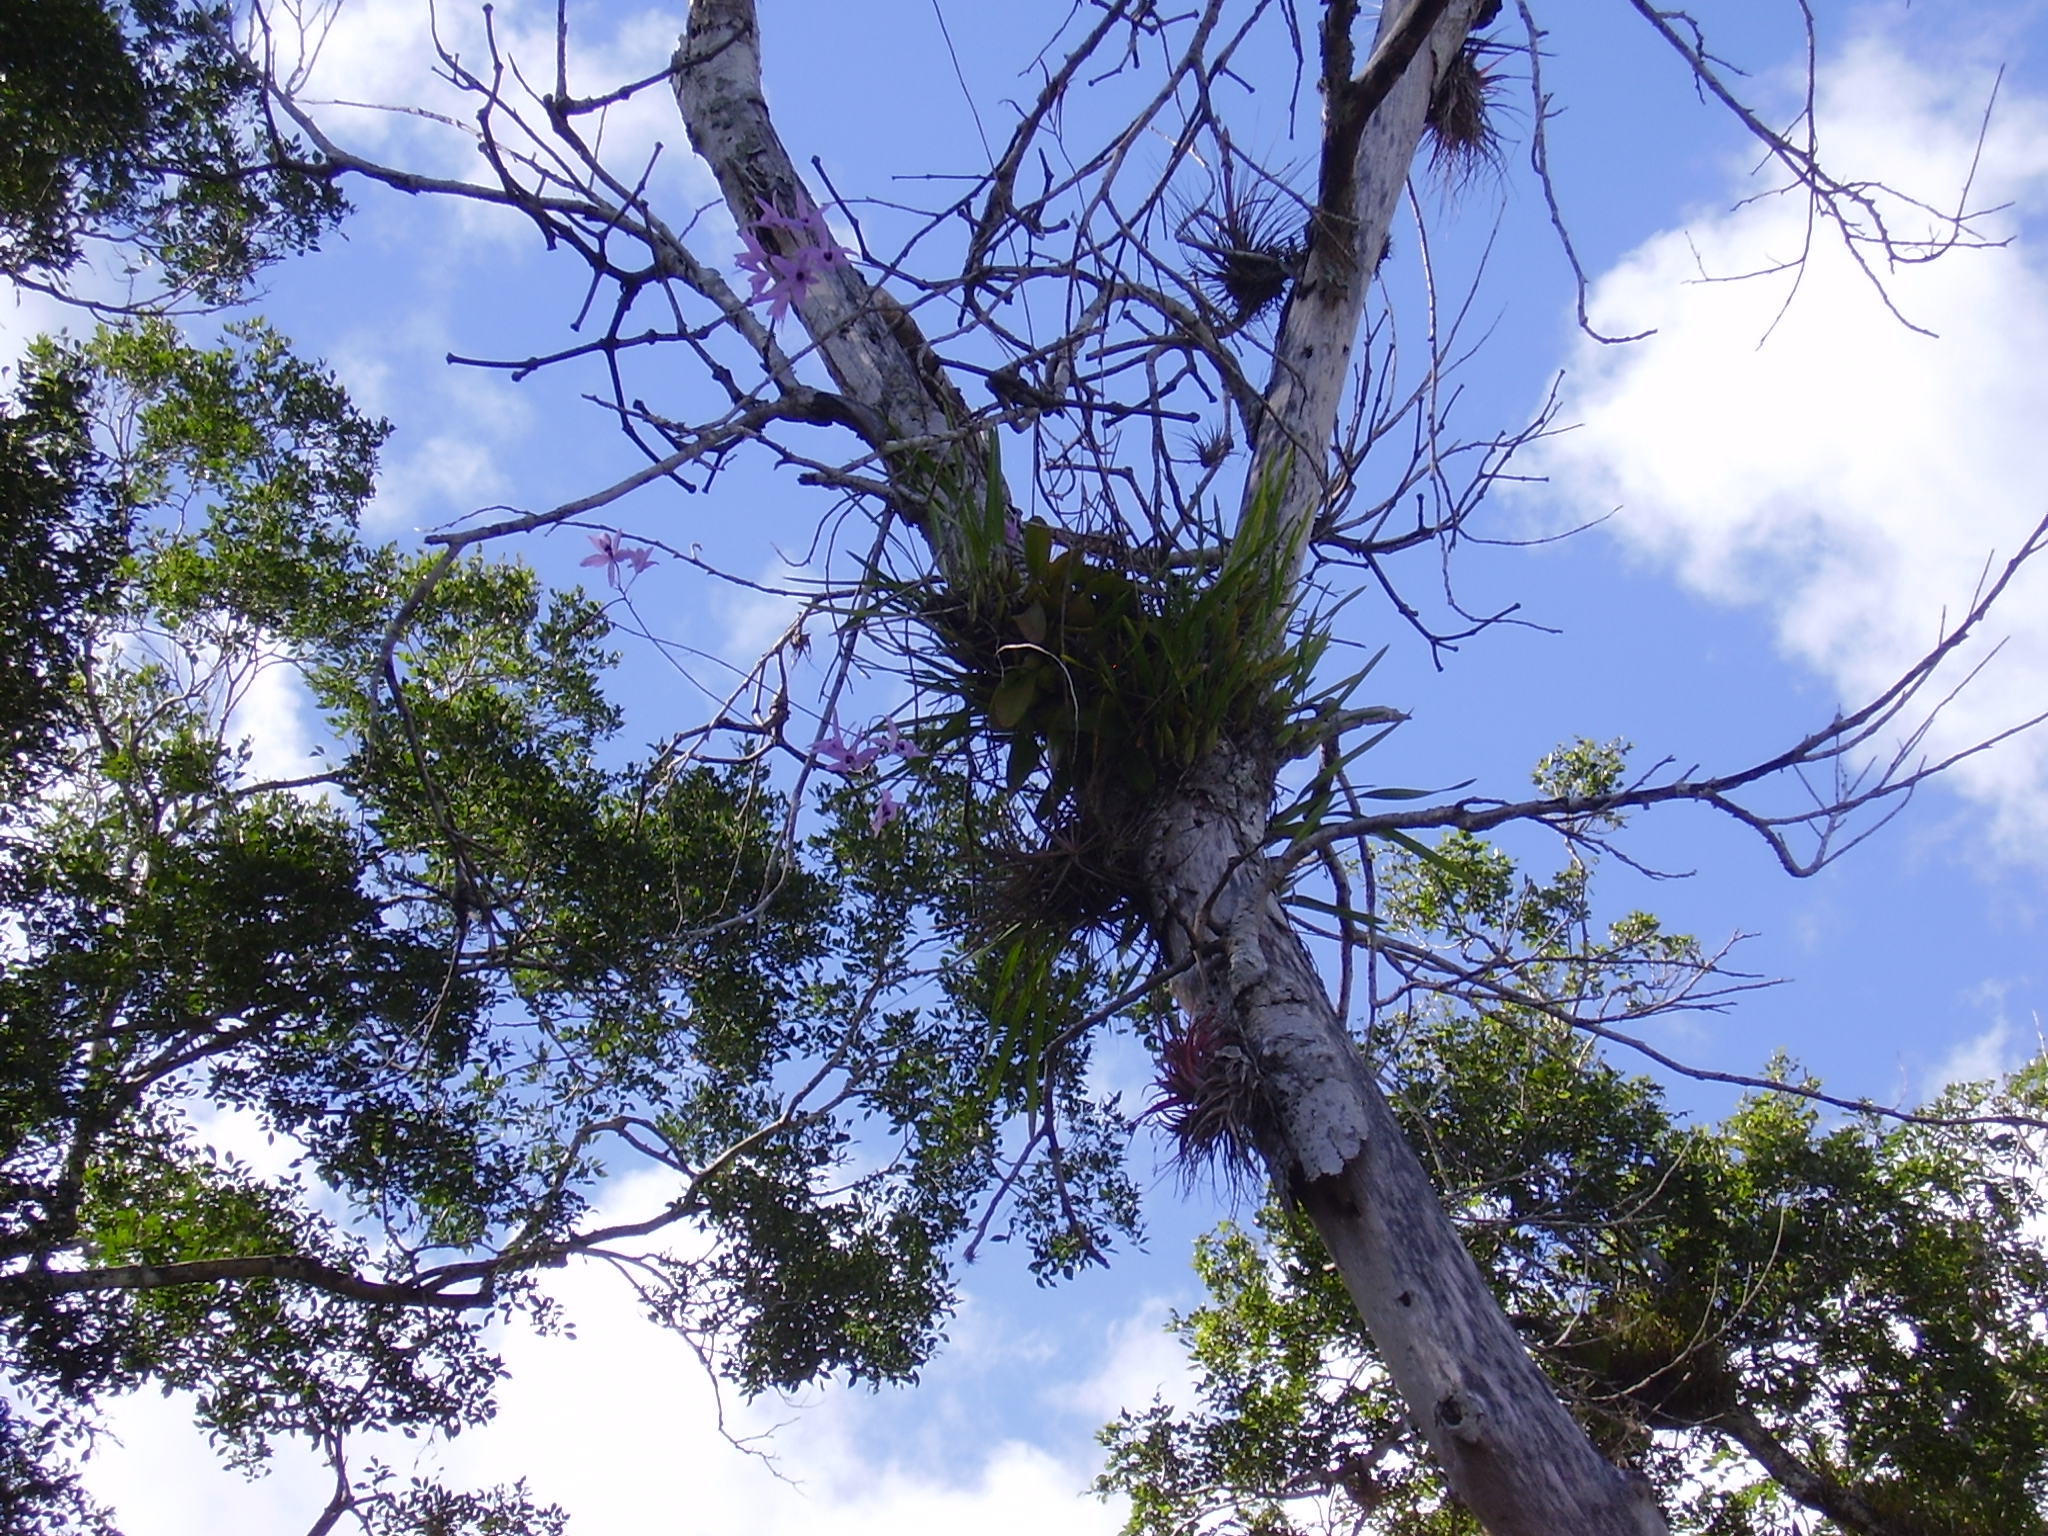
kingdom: Plantae
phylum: Tracheophyta
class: Liliopsida
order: Asparagales
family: Orchidaceae
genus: Laelia
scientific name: Laelia rubescens
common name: Pale laelia
